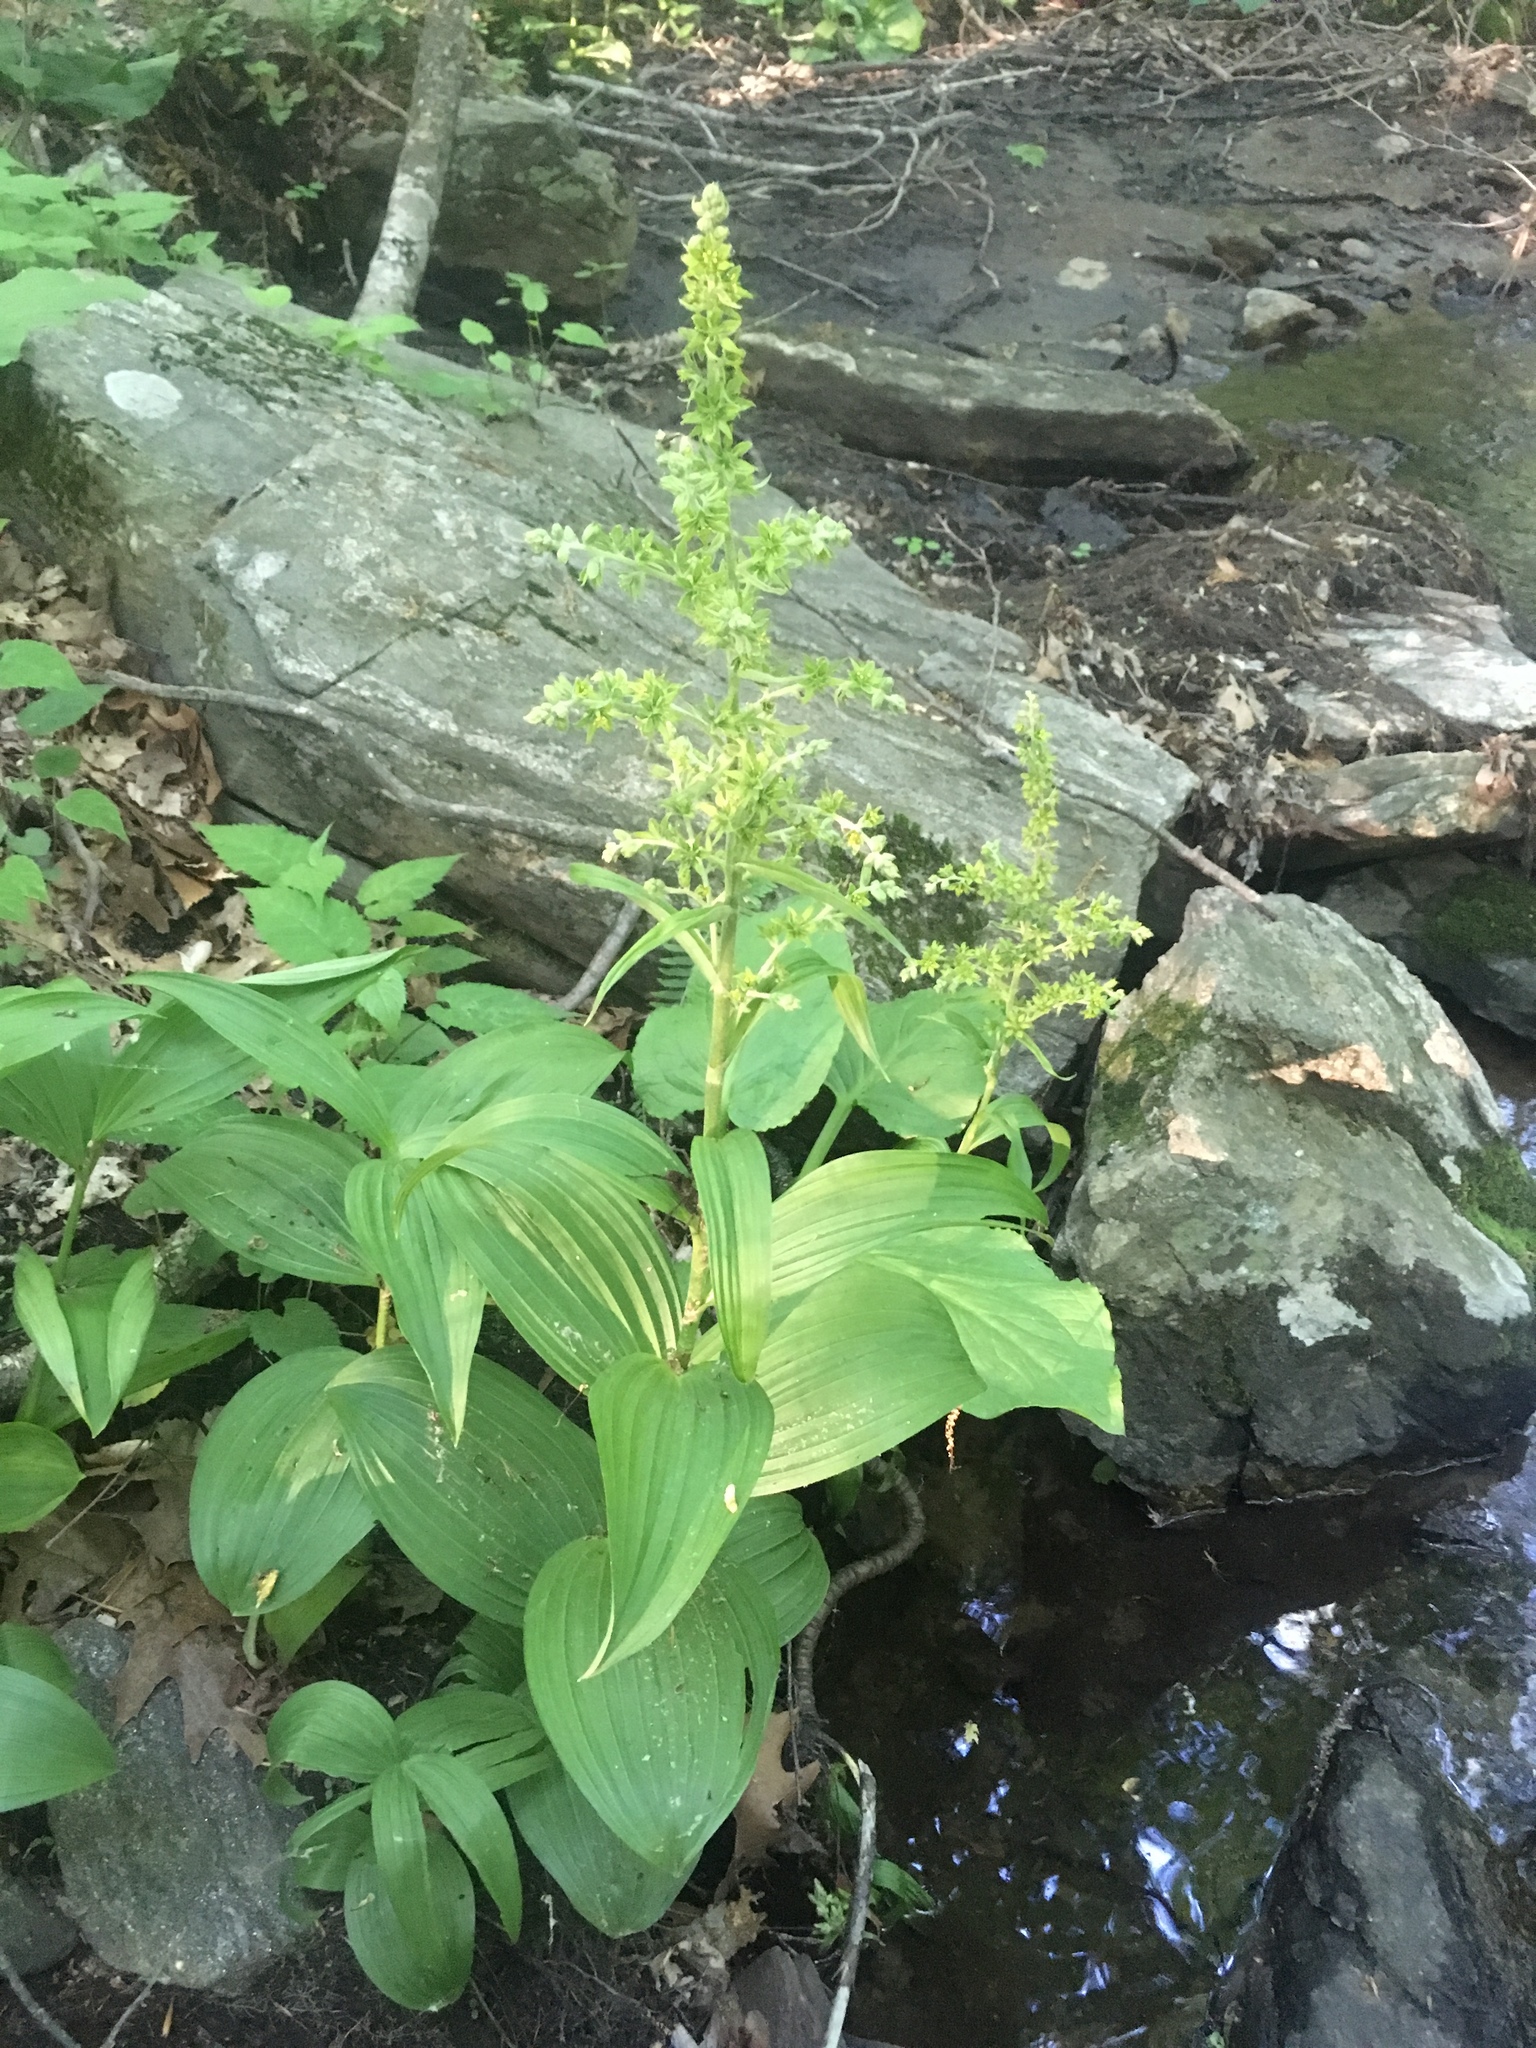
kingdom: Plantae
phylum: Tracheophyta
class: Liliopsida
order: Liliales
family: Melanthiaceae
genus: Veratrum
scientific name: Veratrum viride
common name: American false hellebore
